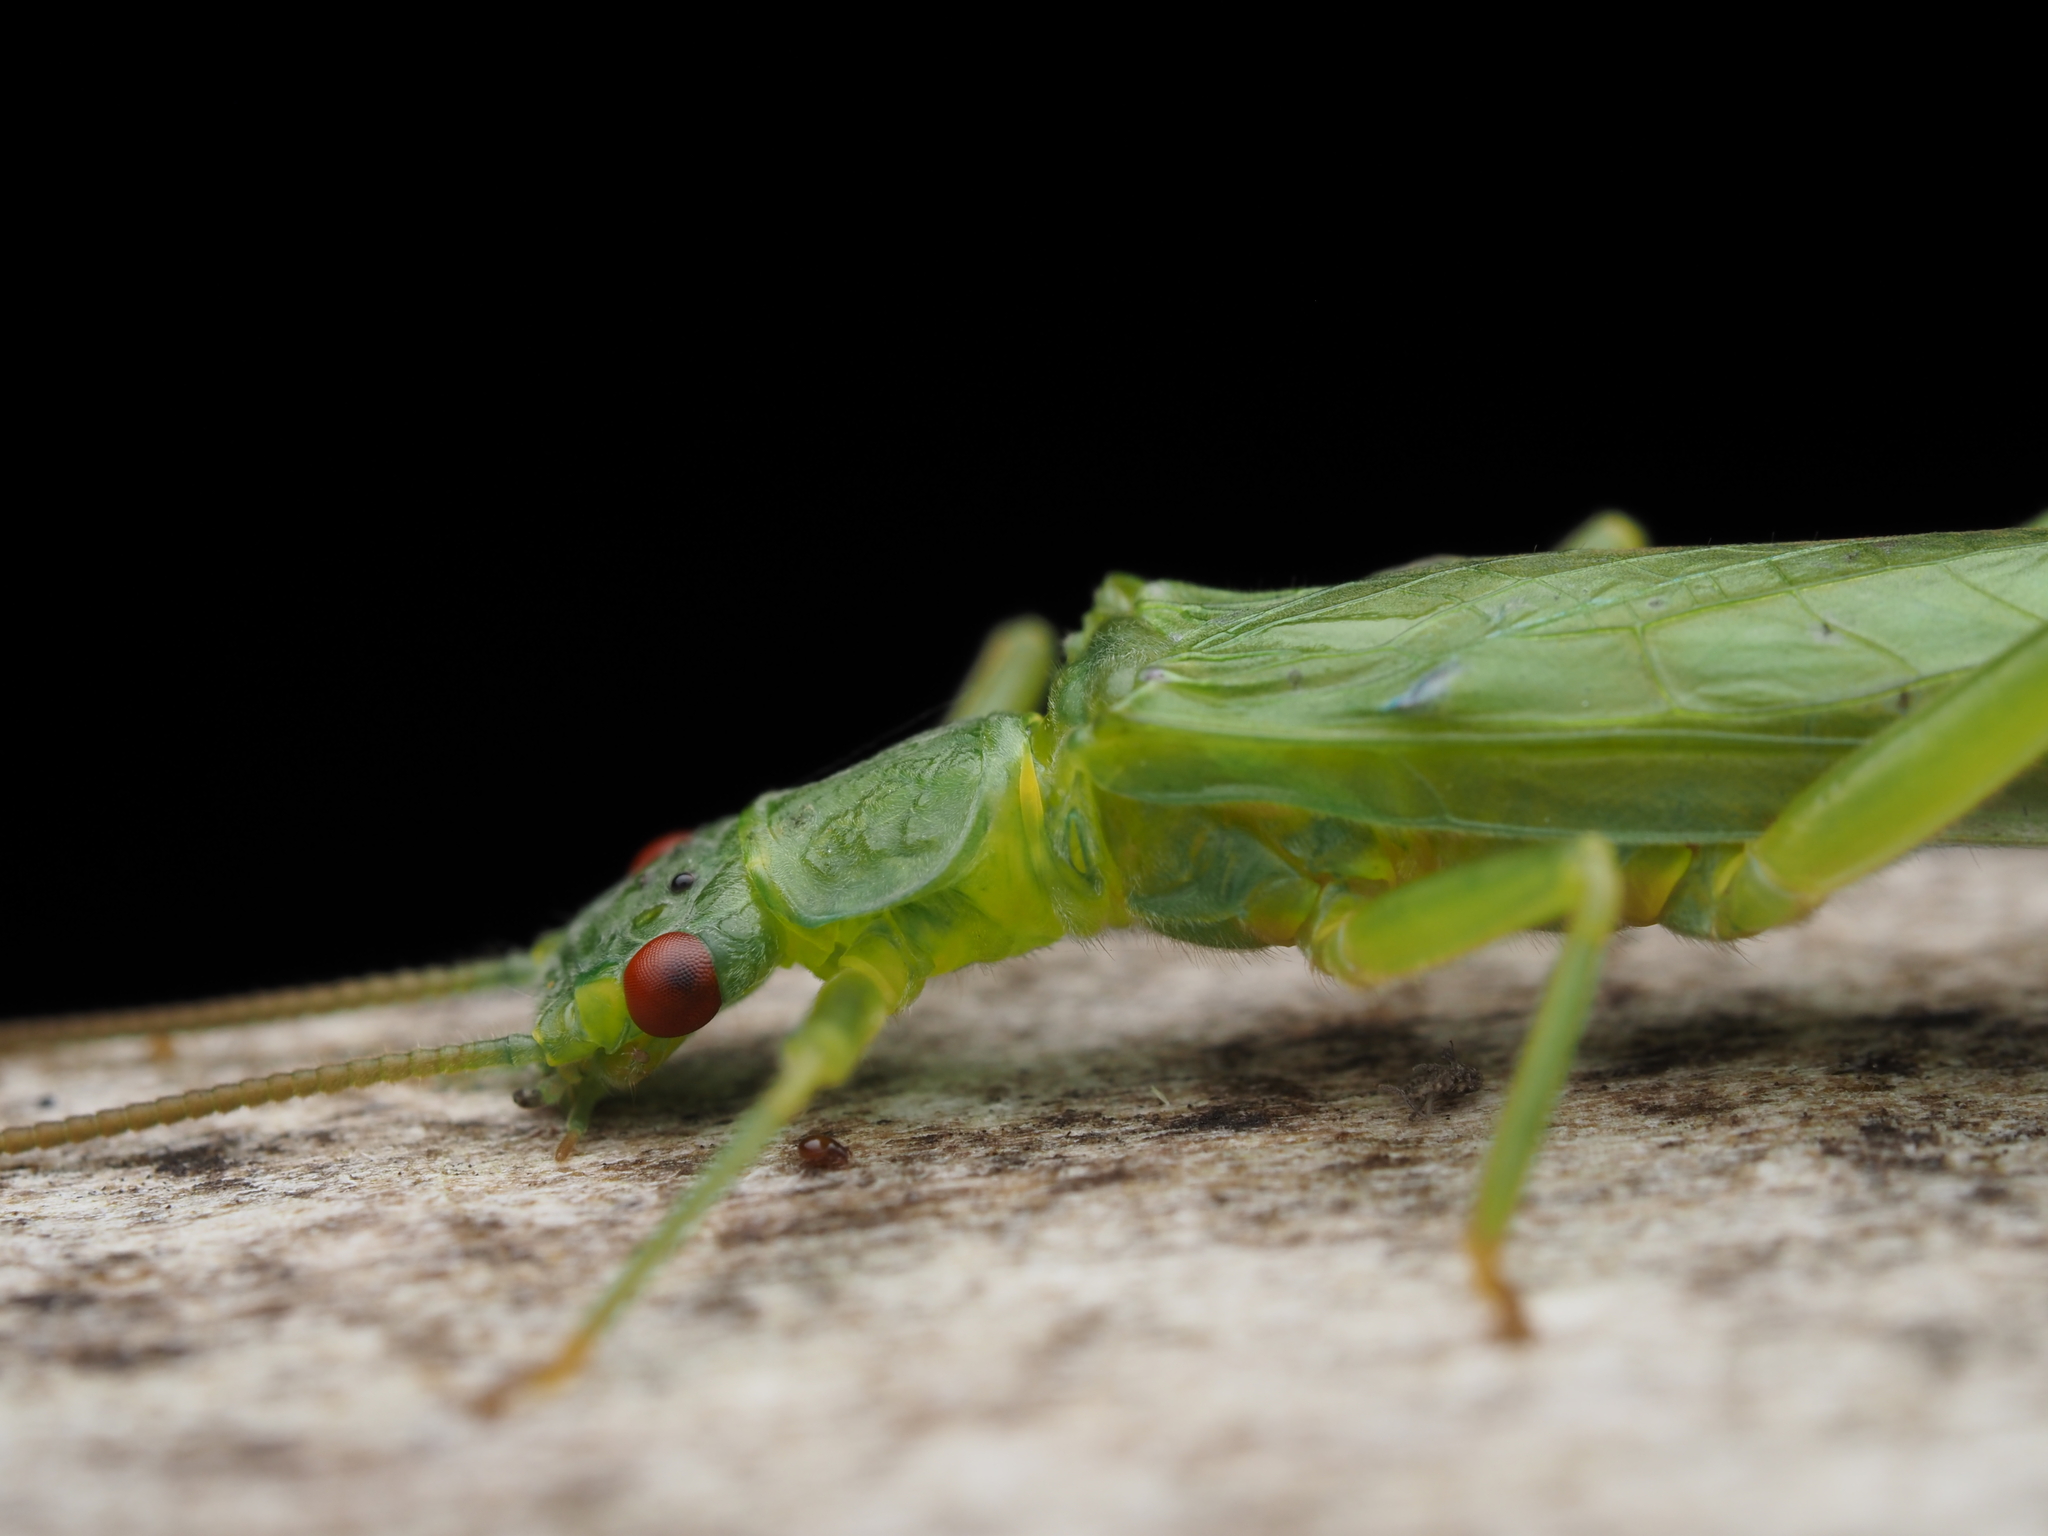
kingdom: Animalia
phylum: Arthropoda
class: Insecta
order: Plecoptera
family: Eustheniidae
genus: Stenoperla
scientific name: Stenoperla prasina
